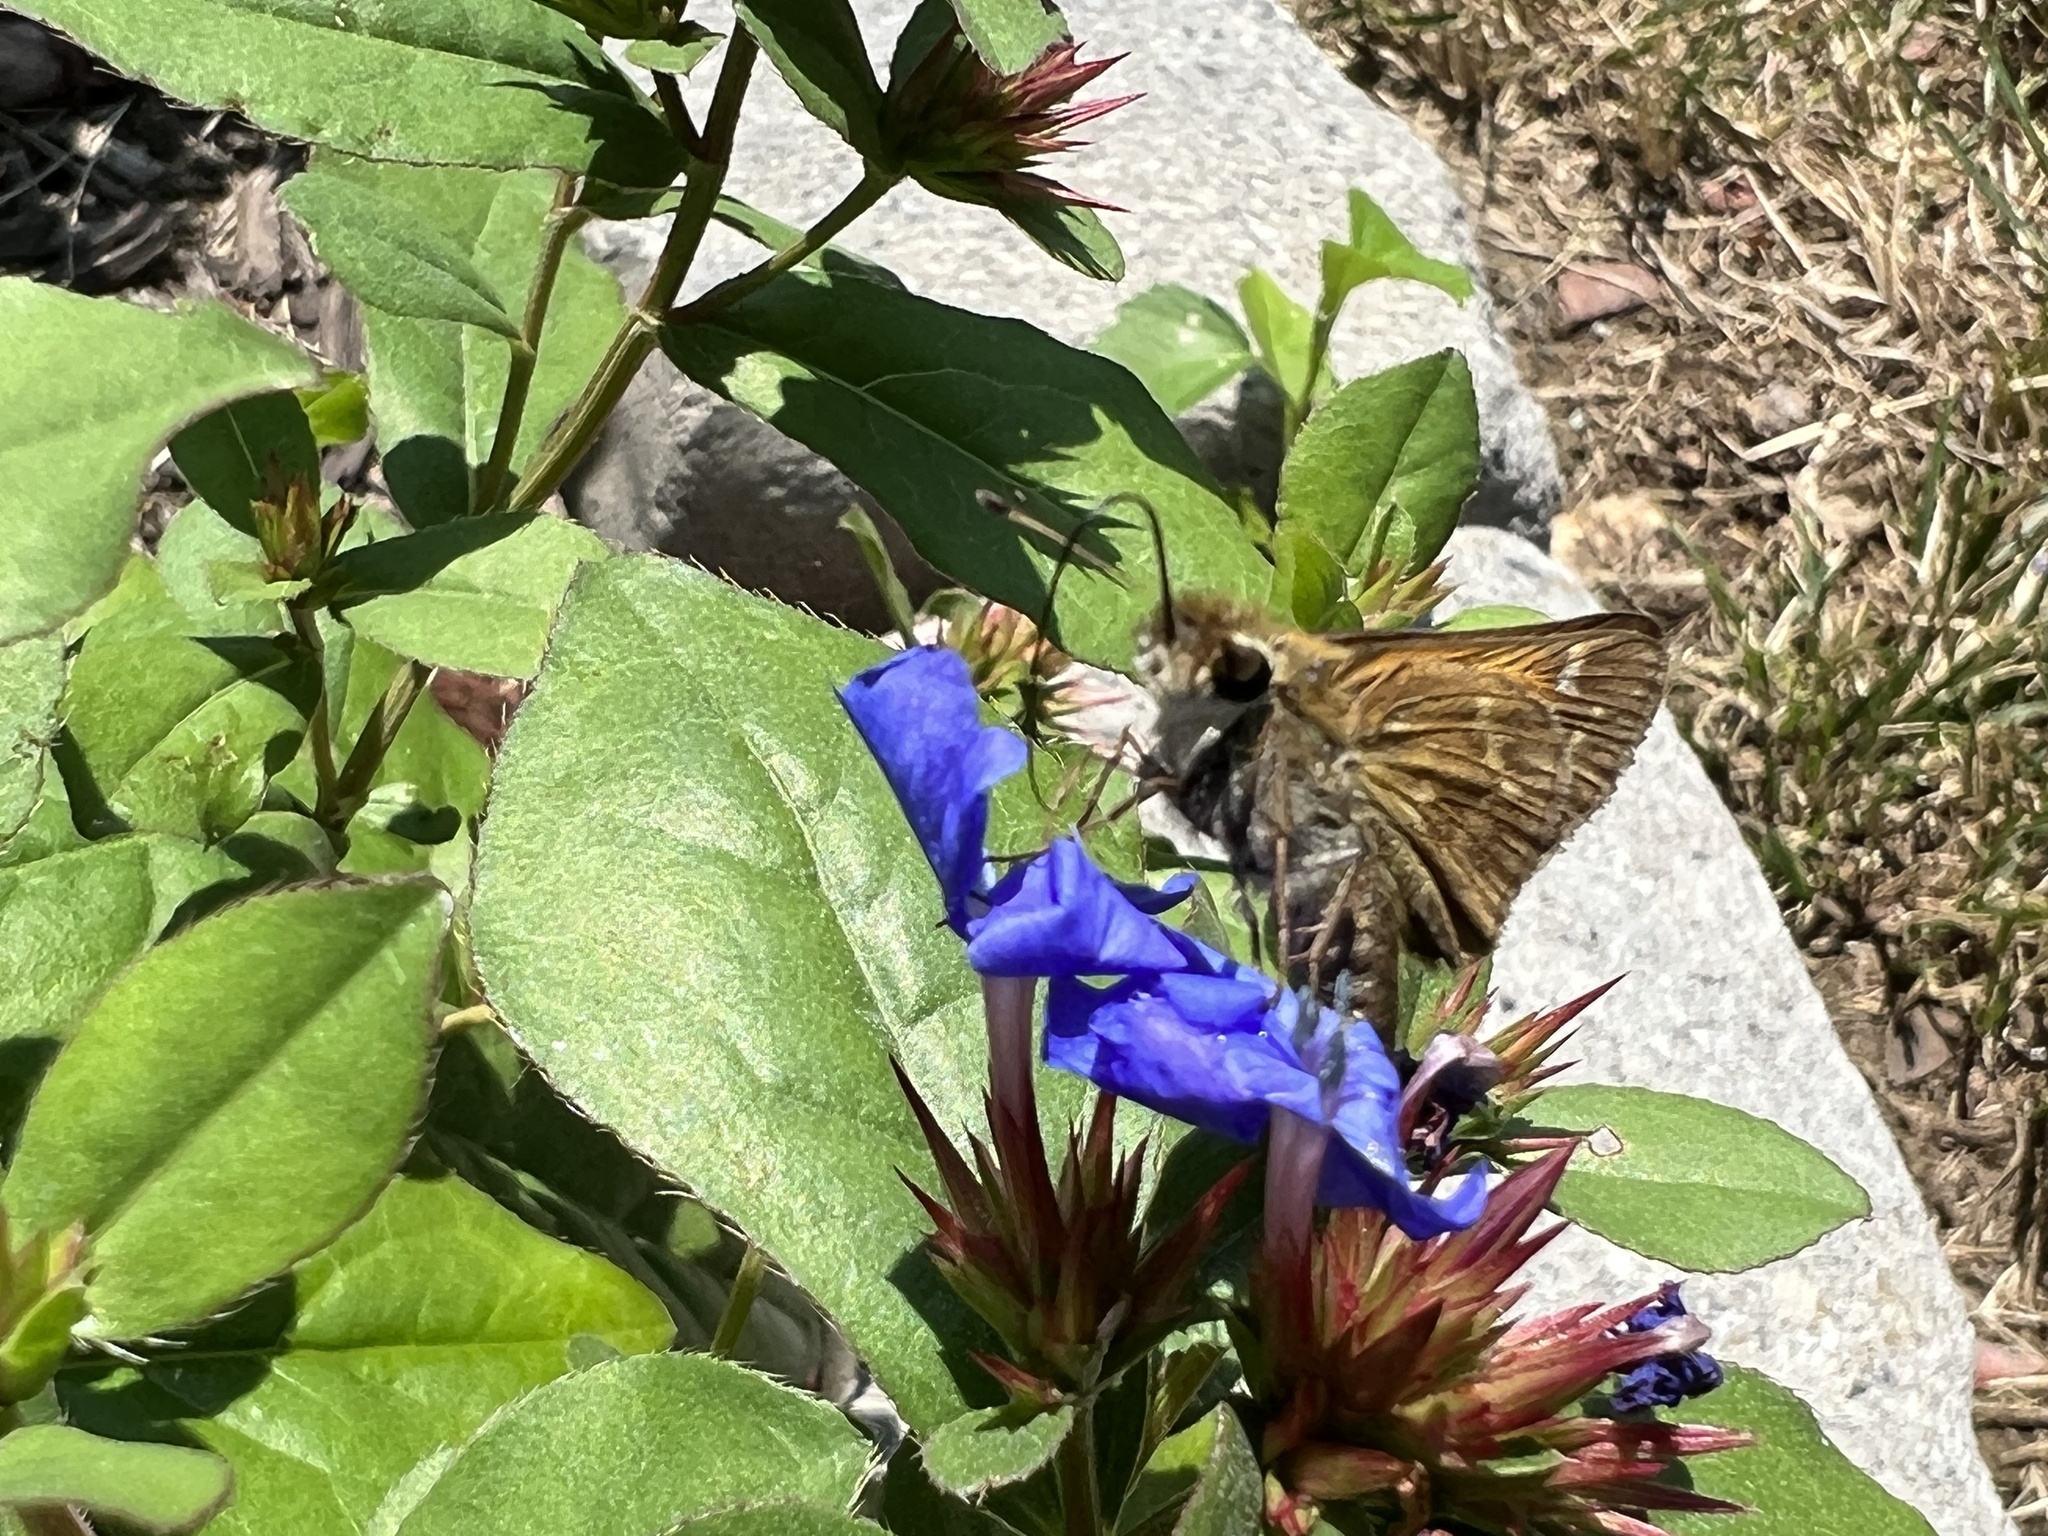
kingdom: Animalia
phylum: Arthropoda
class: Insecta
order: Lepidoptera
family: Hesperiidae
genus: Atalopedes
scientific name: Atalopedes
